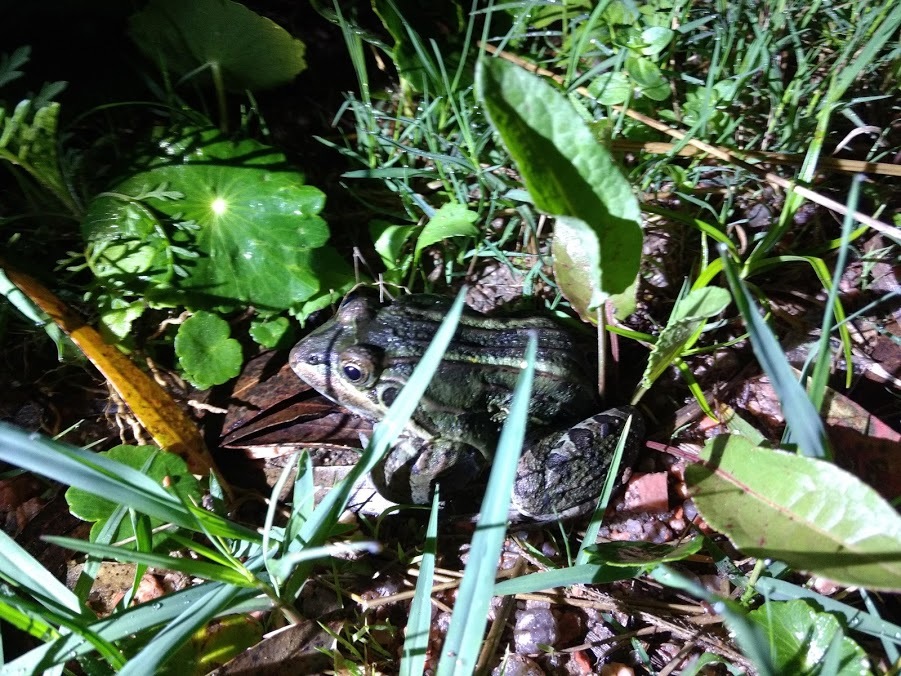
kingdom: Animalia
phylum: Chordata
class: Amphibia
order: Anura
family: Leptodactylidae
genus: Leptodactylus
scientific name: Leptodactylus luctator
